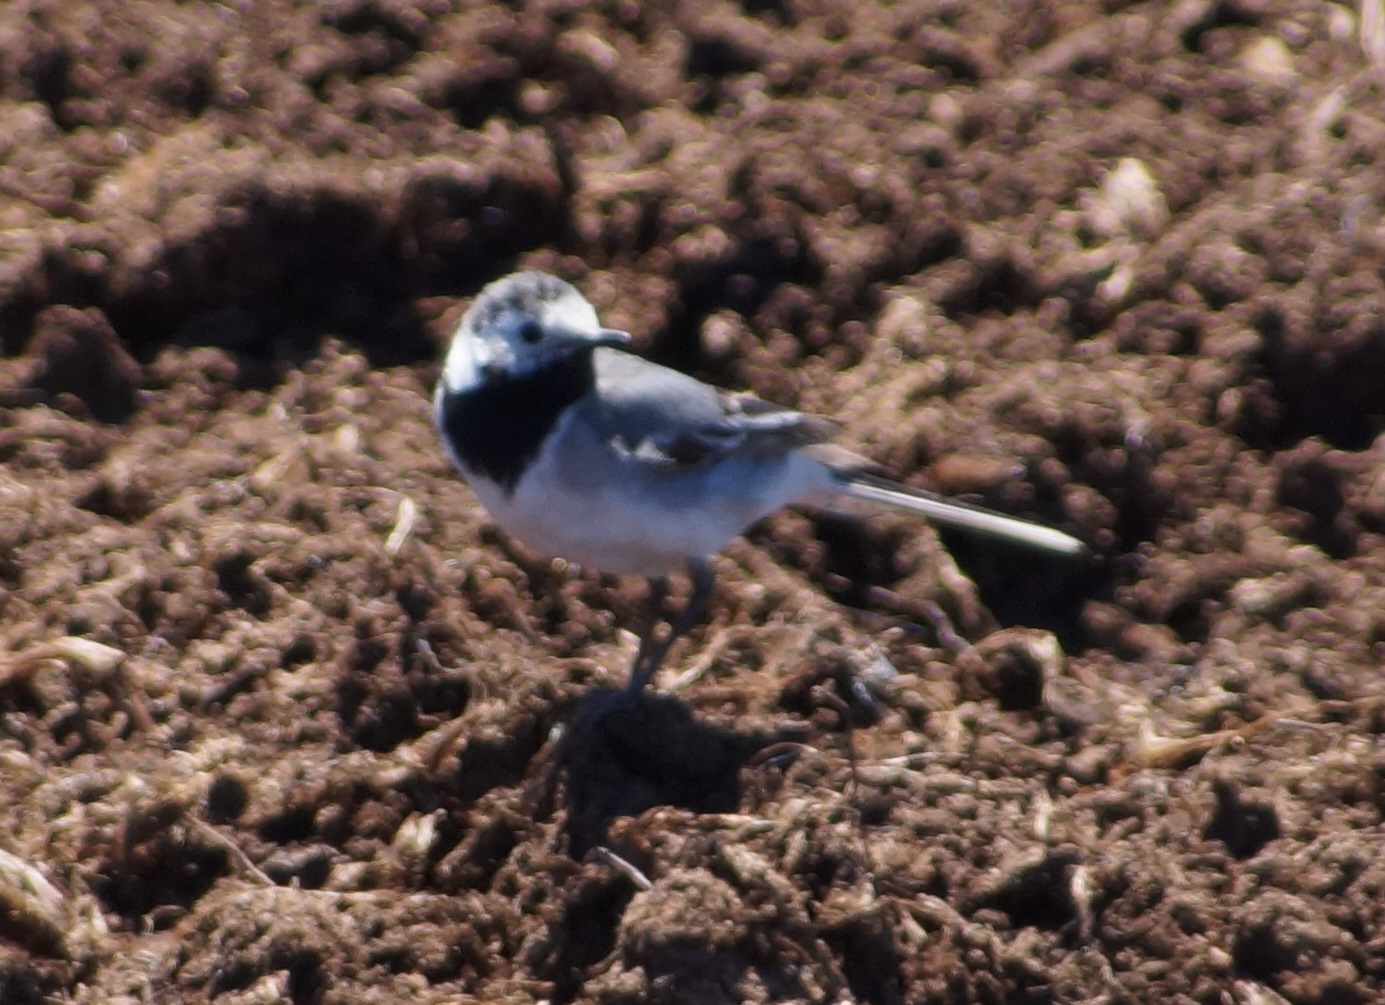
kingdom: Animalia
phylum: Chordata
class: Aves
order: Passeriformes
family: Motacillidae
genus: Motacilla
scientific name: Motacilla alba
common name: White wagtail
